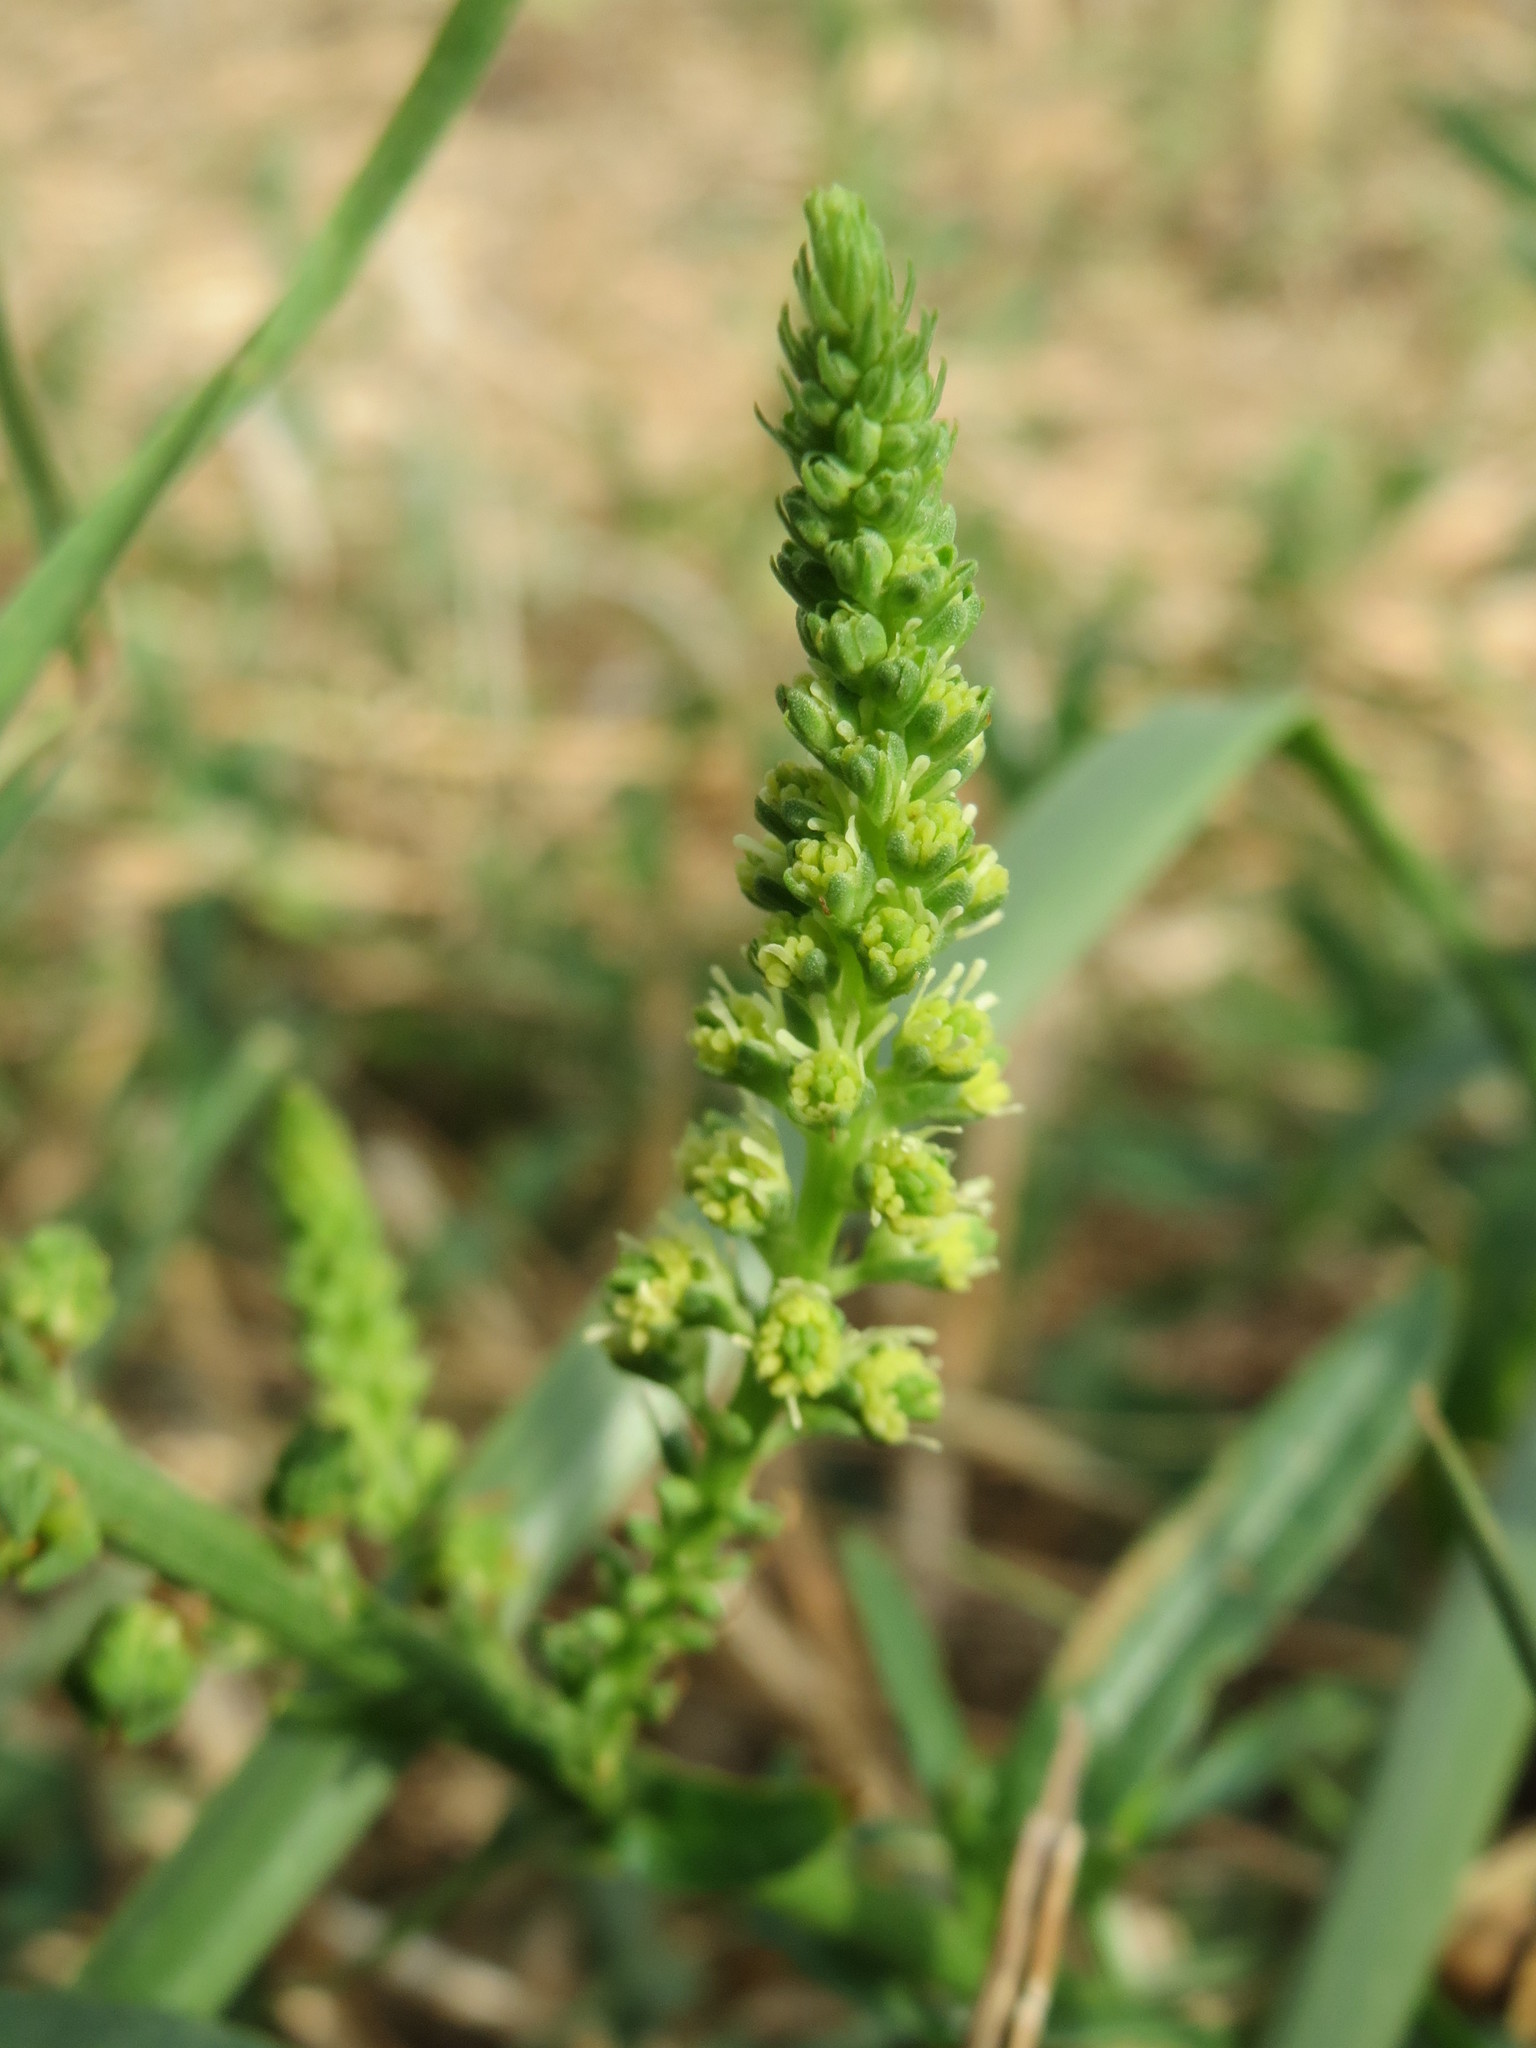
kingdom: Plantae
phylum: Tracheophyta
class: Magnoliopsida
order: Brassicales
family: Resedaceae
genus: Reseda
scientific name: Reseda lutea
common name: Wild mignonette
